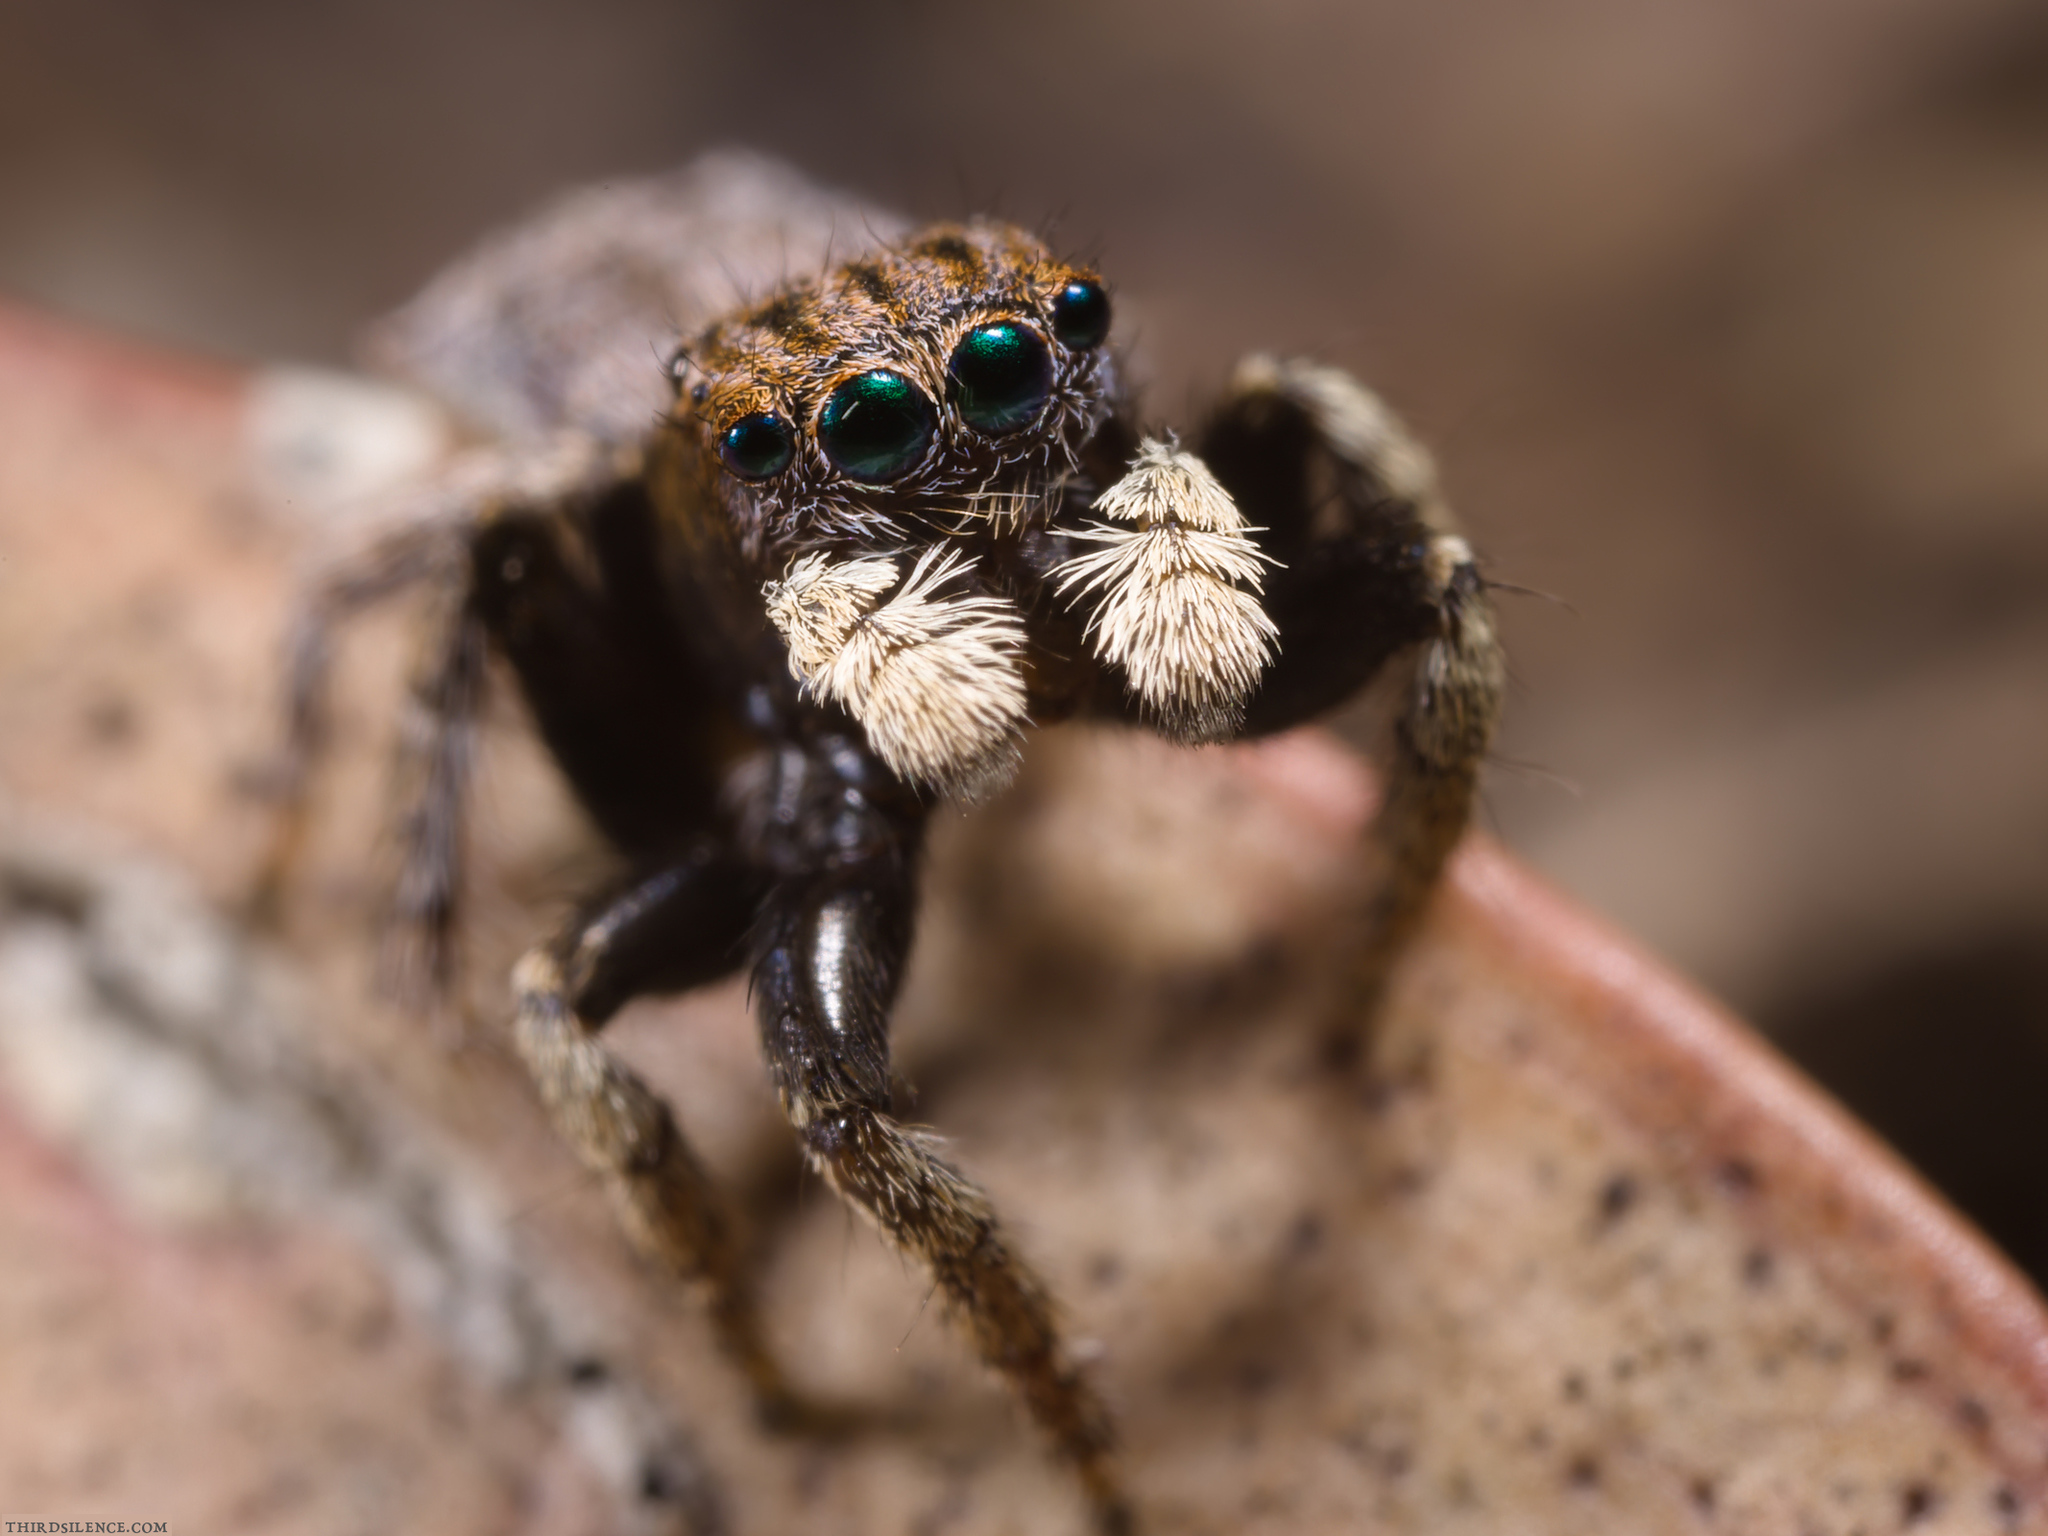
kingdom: Animalia
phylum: Arthropoda
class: Arachnida
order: Araneae
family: Salticidae
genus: Maratus
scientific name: Maratus vespertilio
